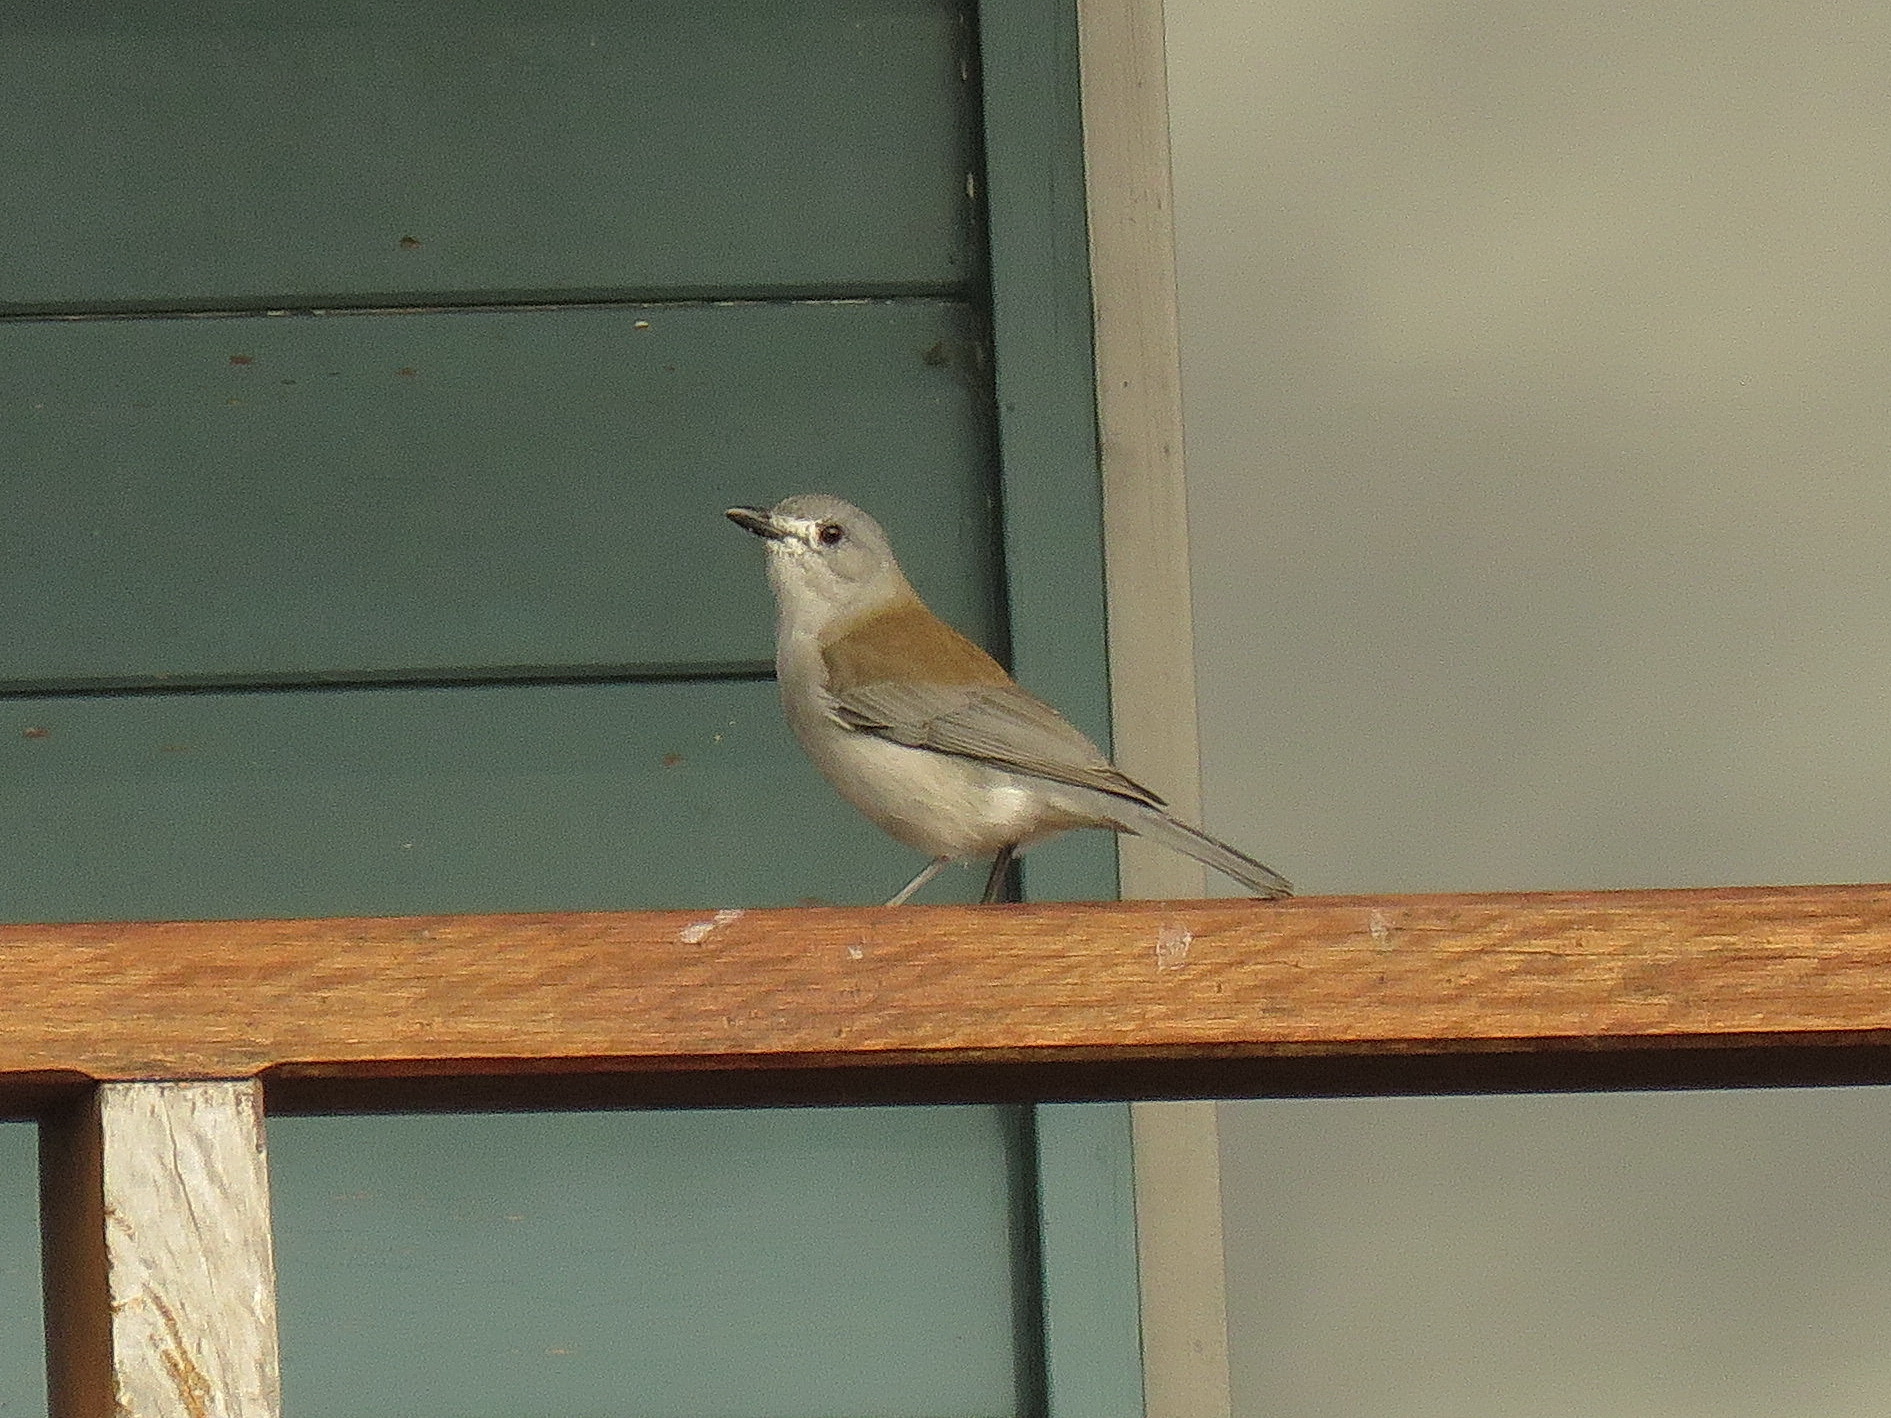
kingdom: Animalia
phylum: Chordata
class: Aves
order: Passeriformes
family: Pachycephalidae
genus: Colluricincla
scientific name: Colluricincla harmonica
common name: Grey shrikethrush
